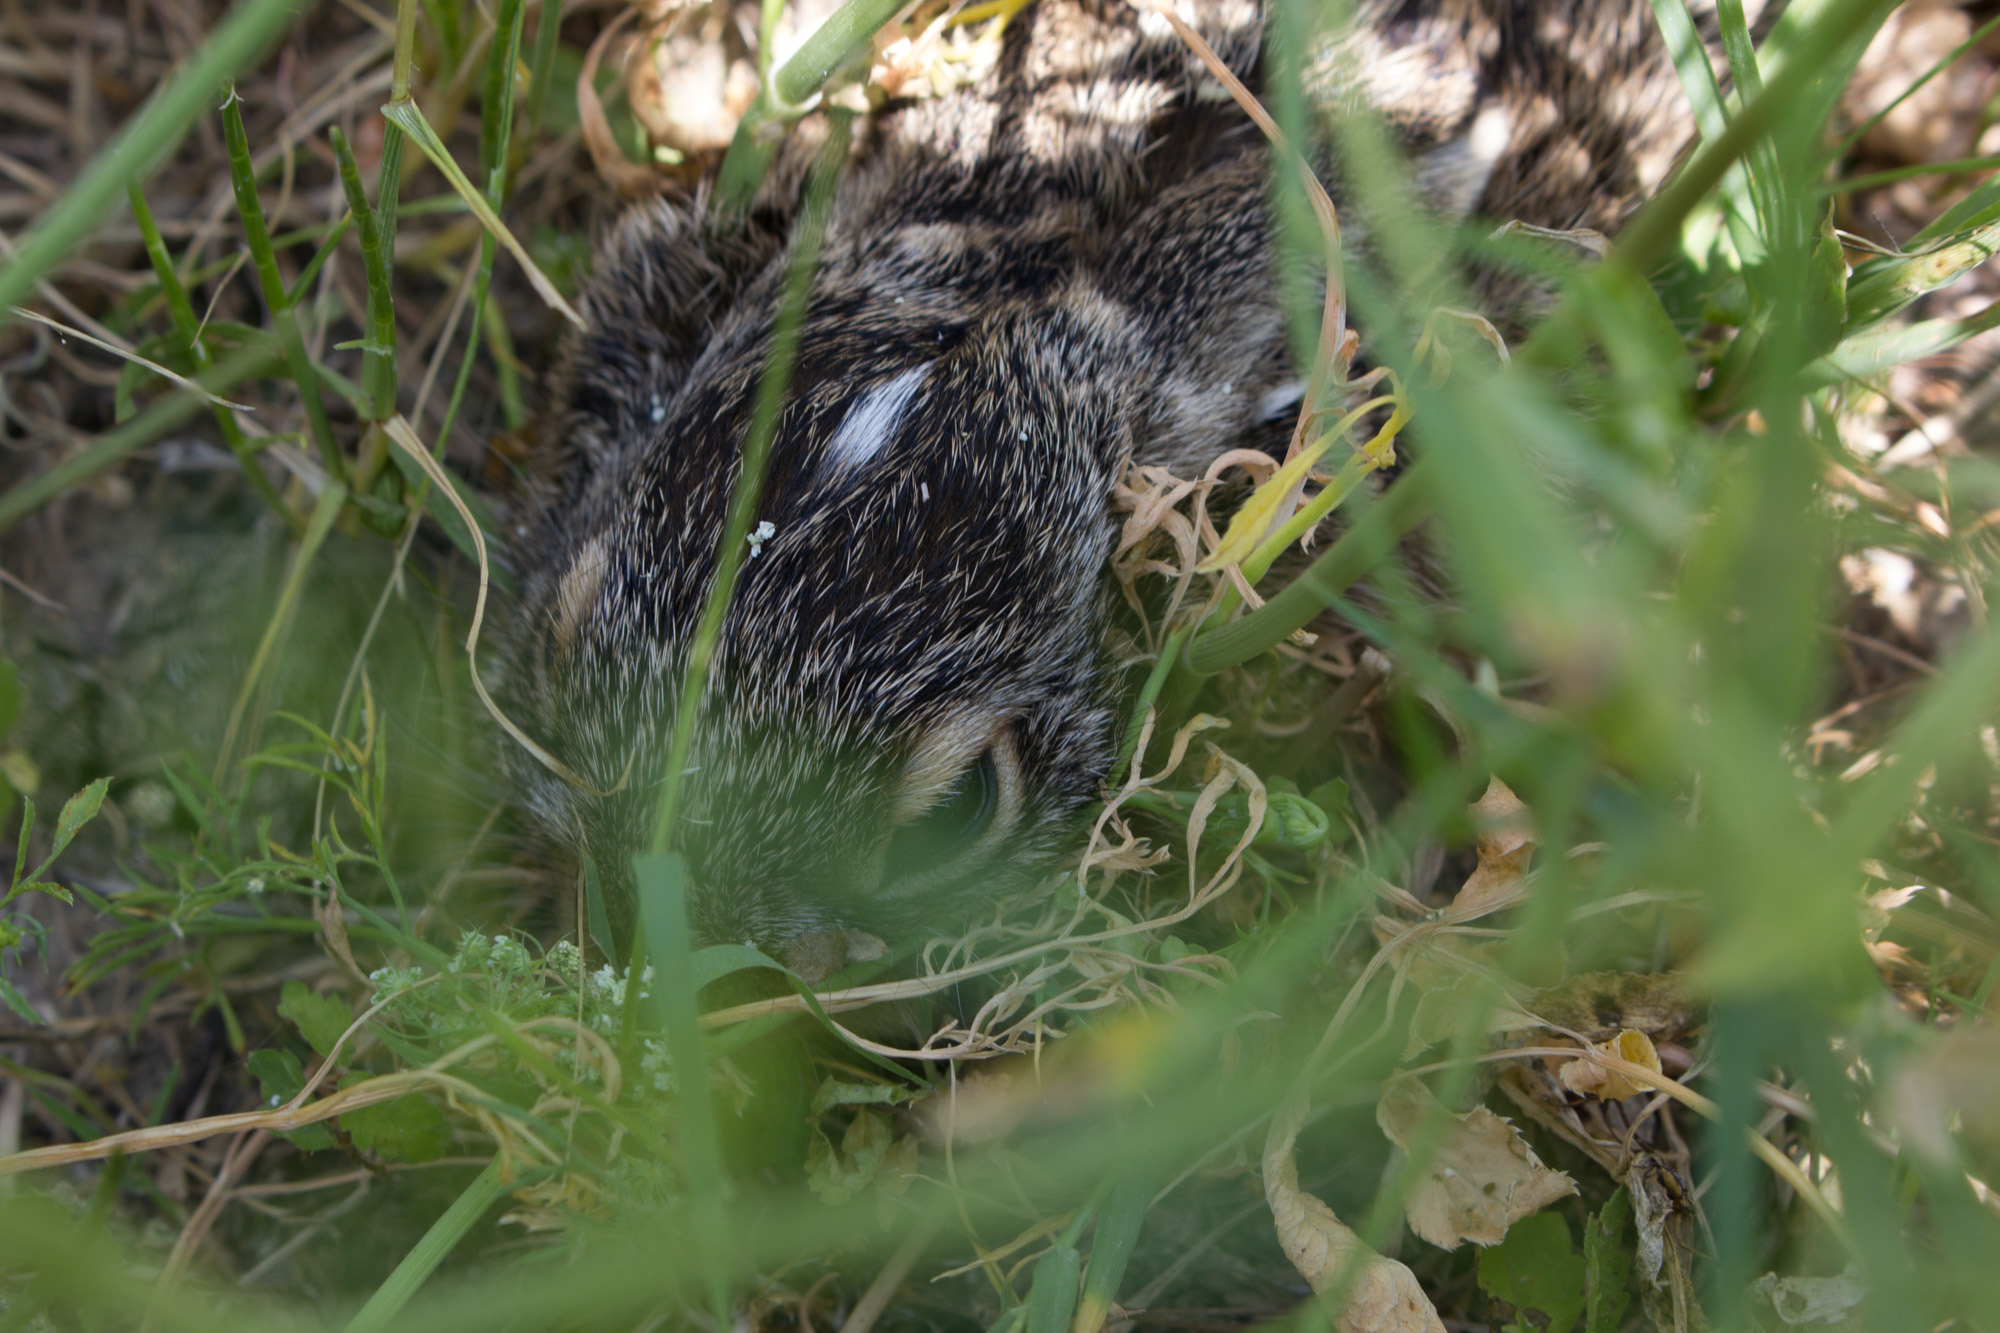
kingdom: Animalia
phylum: Chordata
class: Mammalia
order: Lagomorpha
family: Leporidae
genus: Lepus
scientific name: Lepus europaeus
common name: European hare
